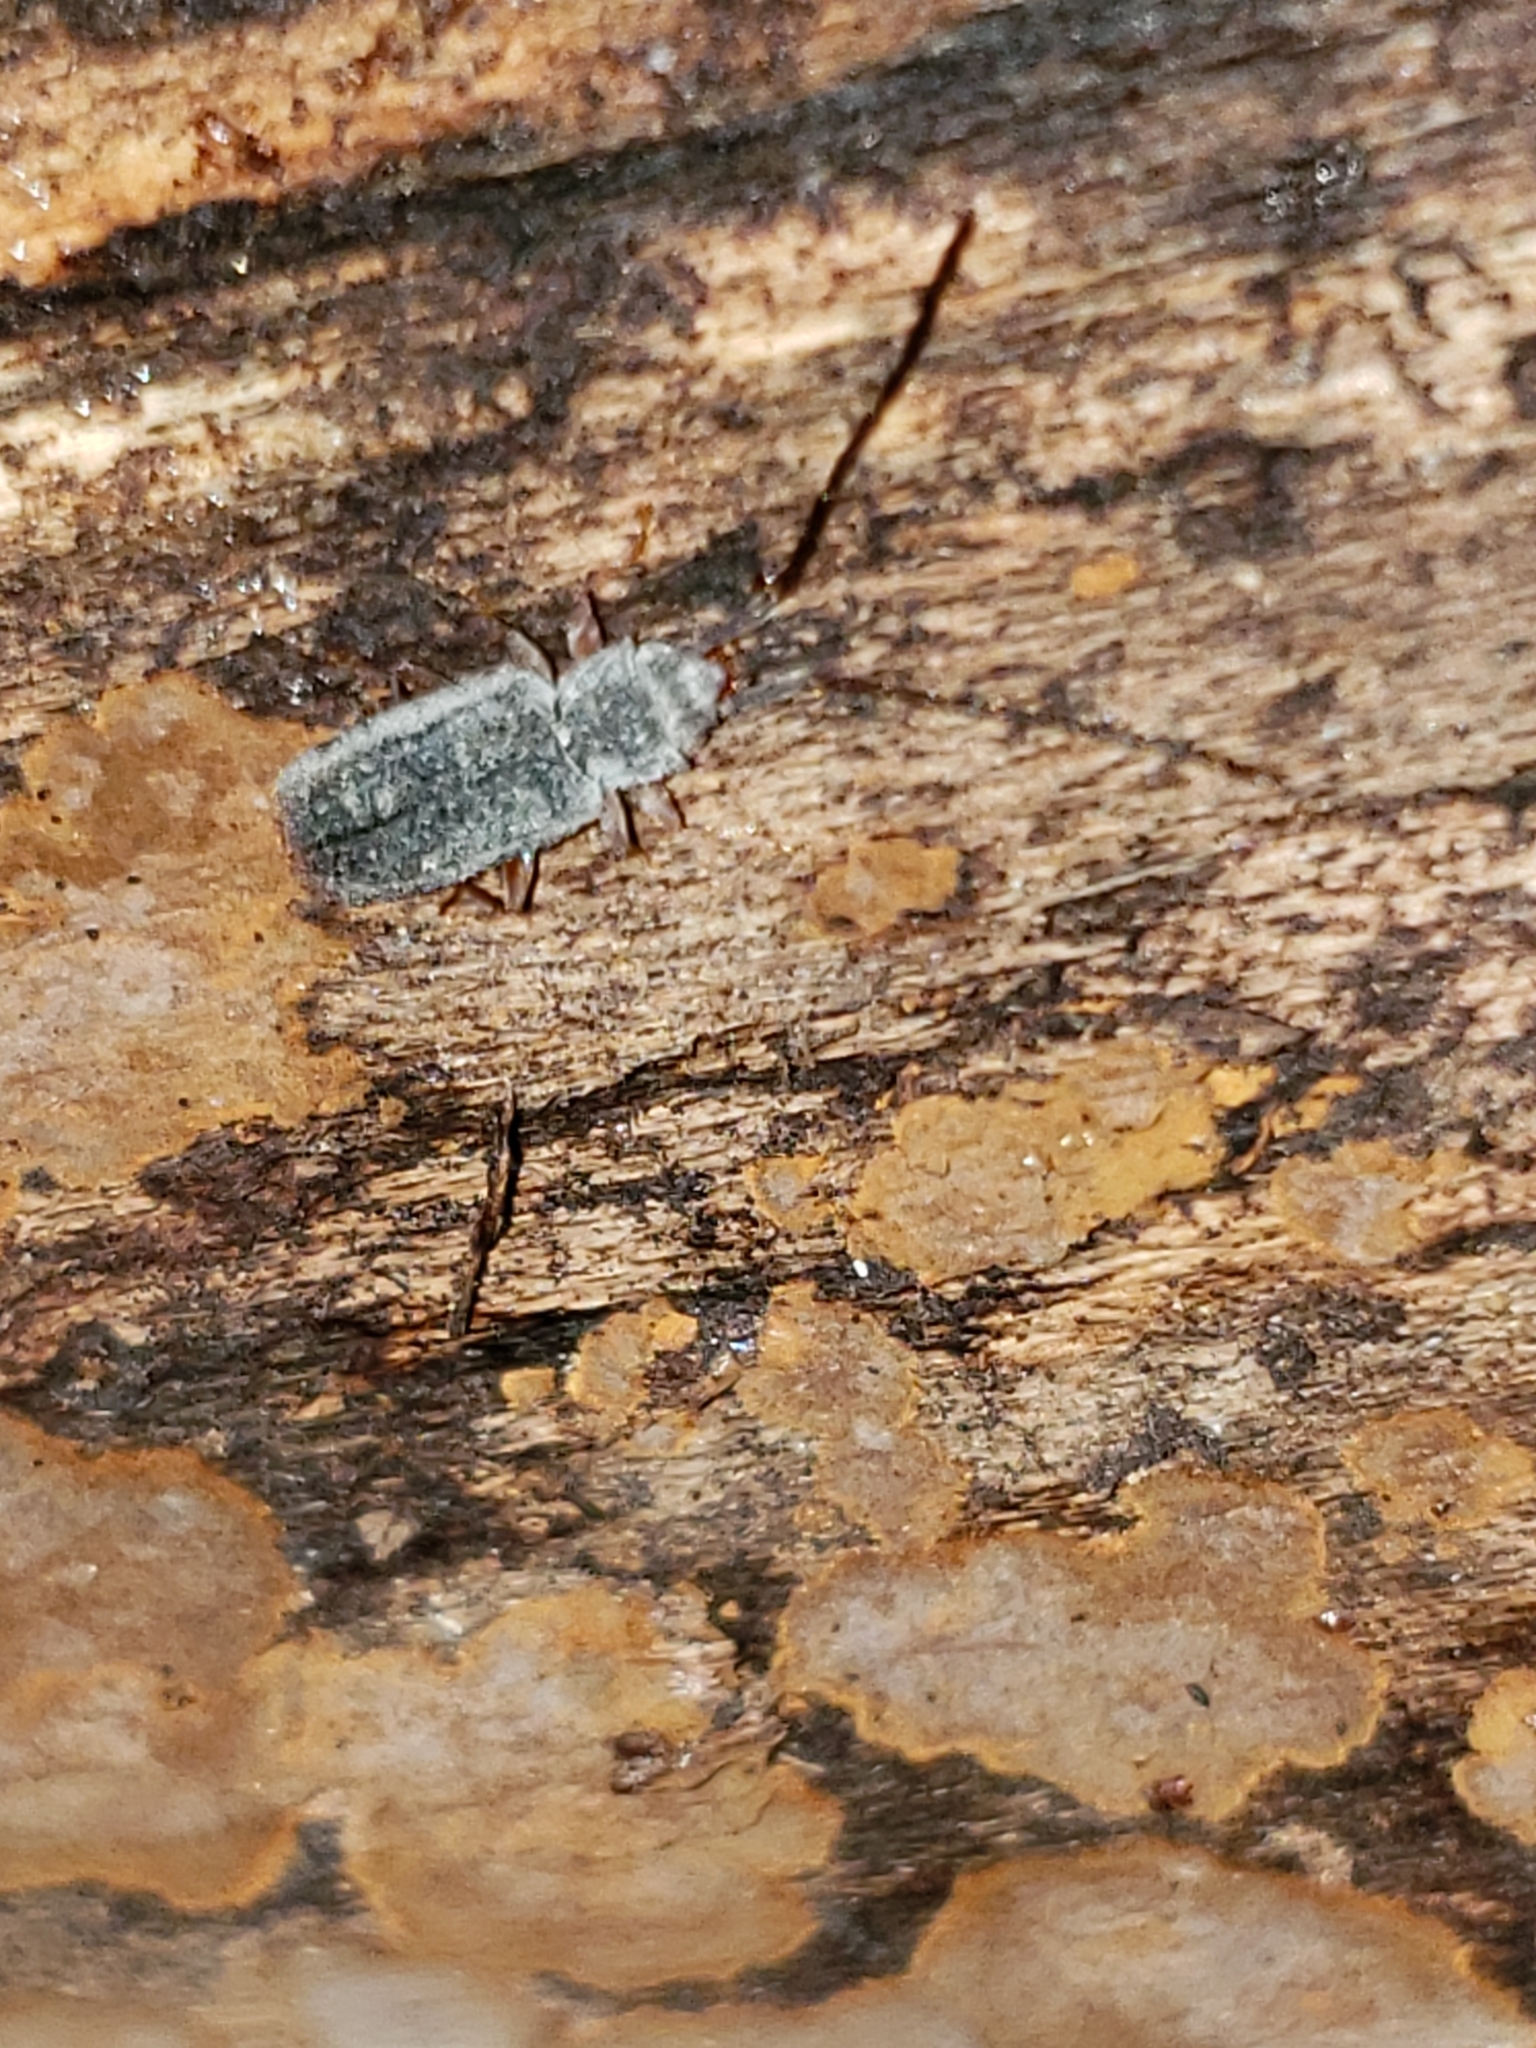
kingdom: Animalia
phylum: Arthropoda
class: Insecta
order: Coleoptera
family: Silvanidae
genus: Uleiota
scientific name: Uleiota dubia
